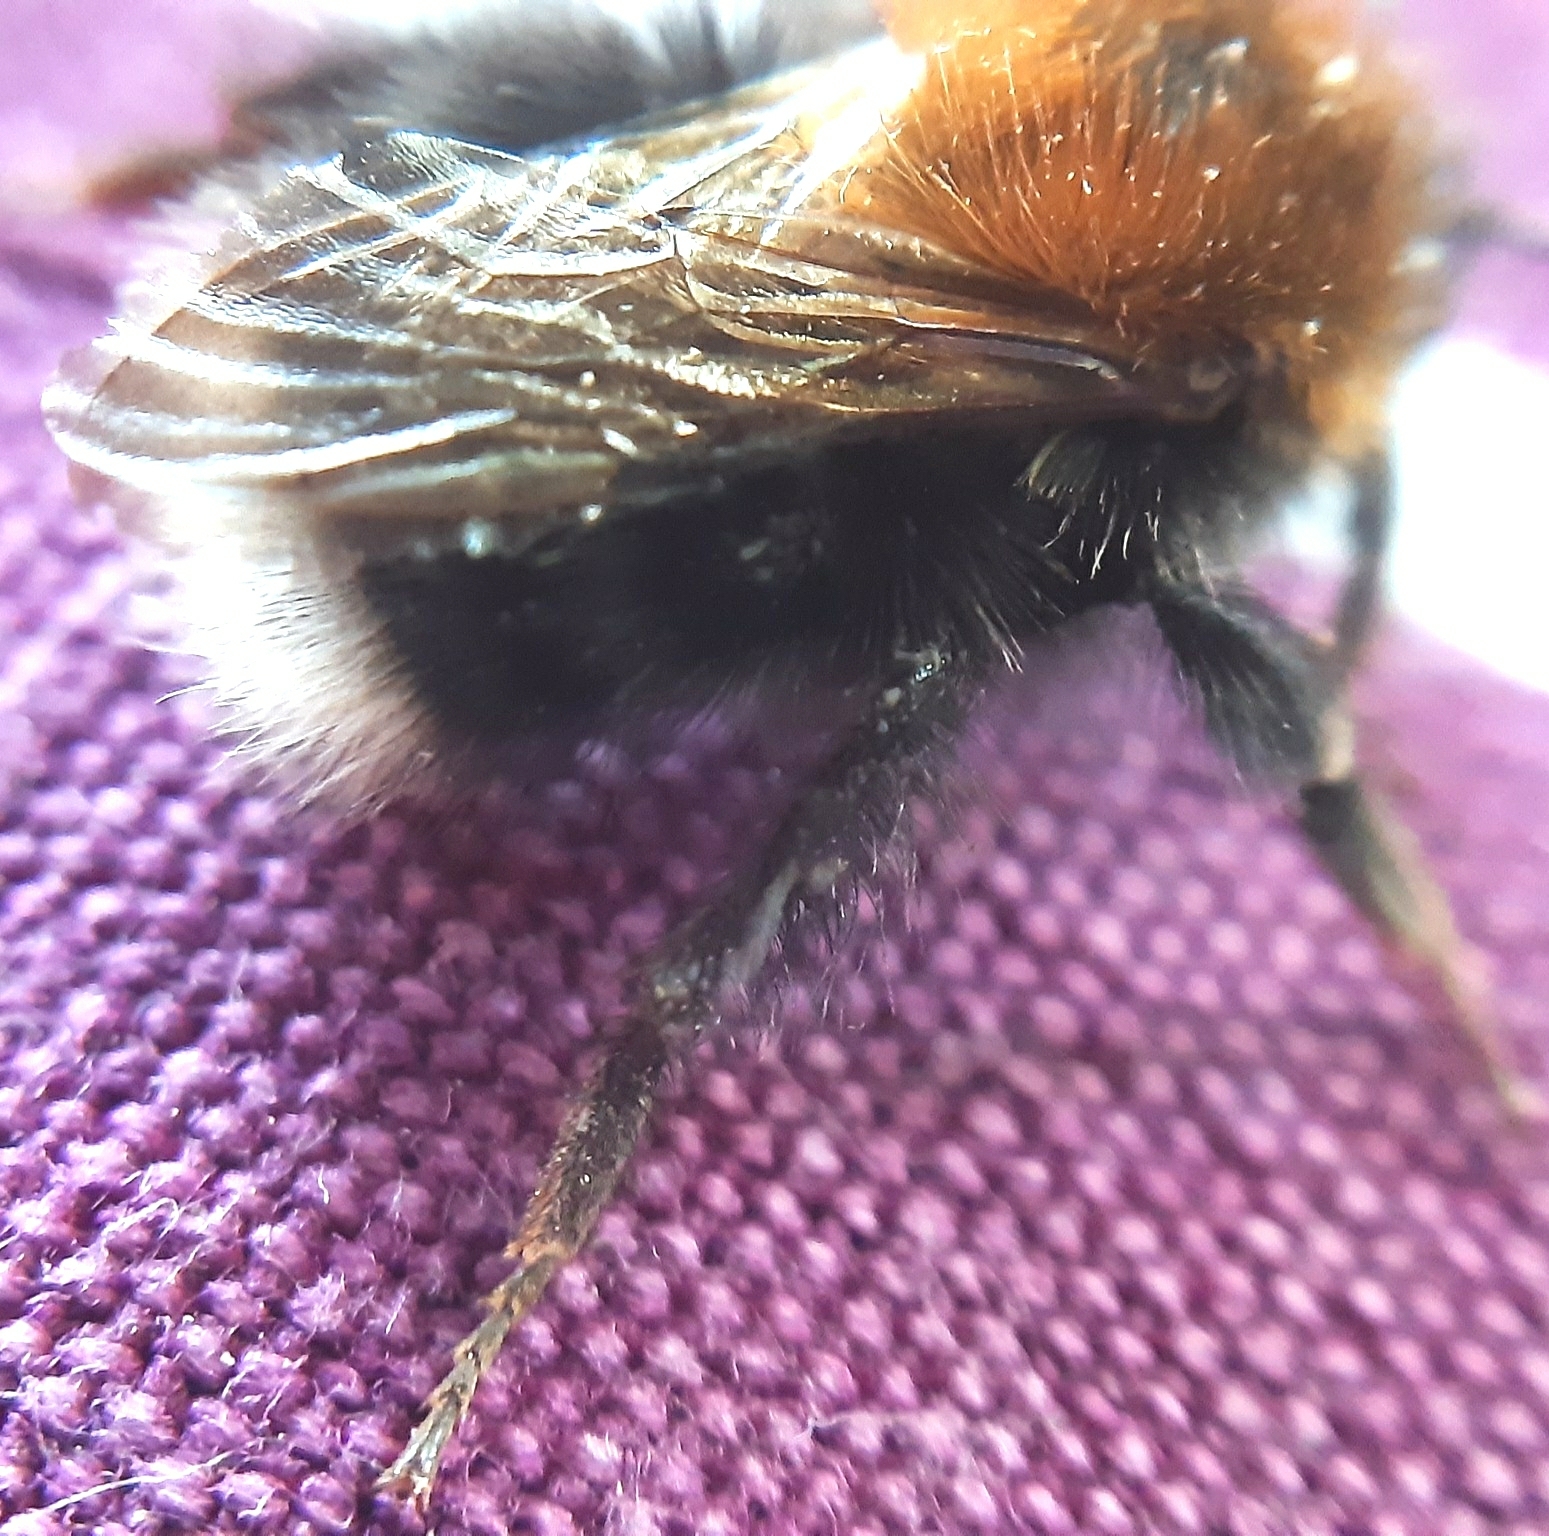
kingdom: Animalia
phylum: Arthropoda
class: Insecta
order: Hymenoptera
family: Apidae
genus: Bombus
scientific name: Bombus hypnorum
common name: New garden bumblebee
